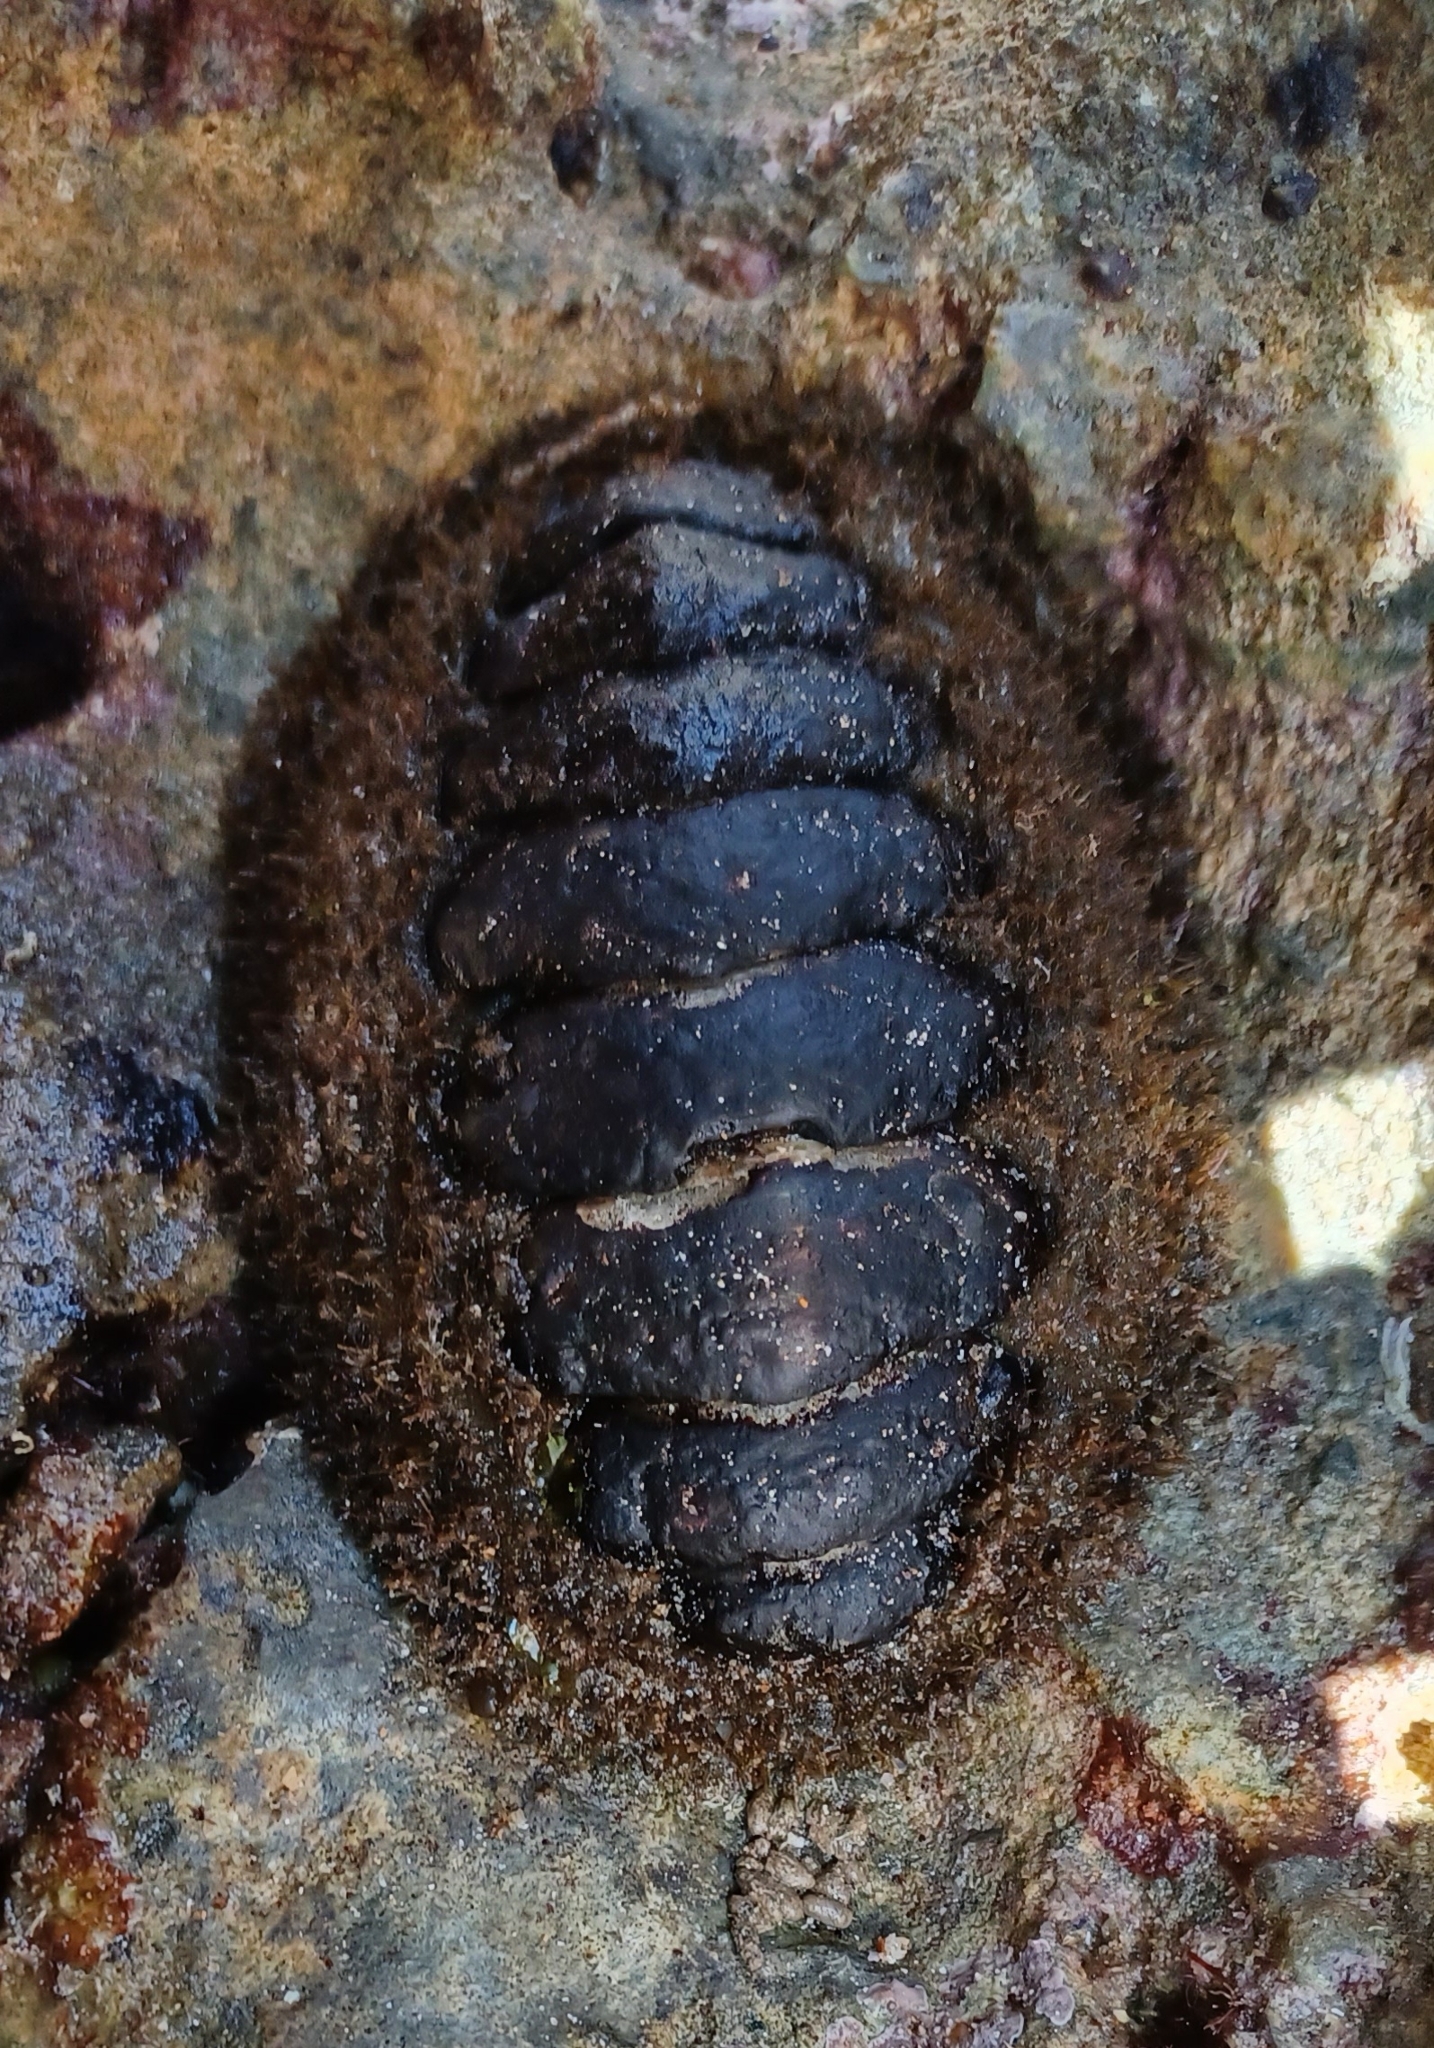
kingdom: Animalia
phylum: Mollusca
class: Polyplacophora
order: Chitonida
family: Mopaliidae
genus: Plaxiphora
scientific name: Plaxiphora albida
